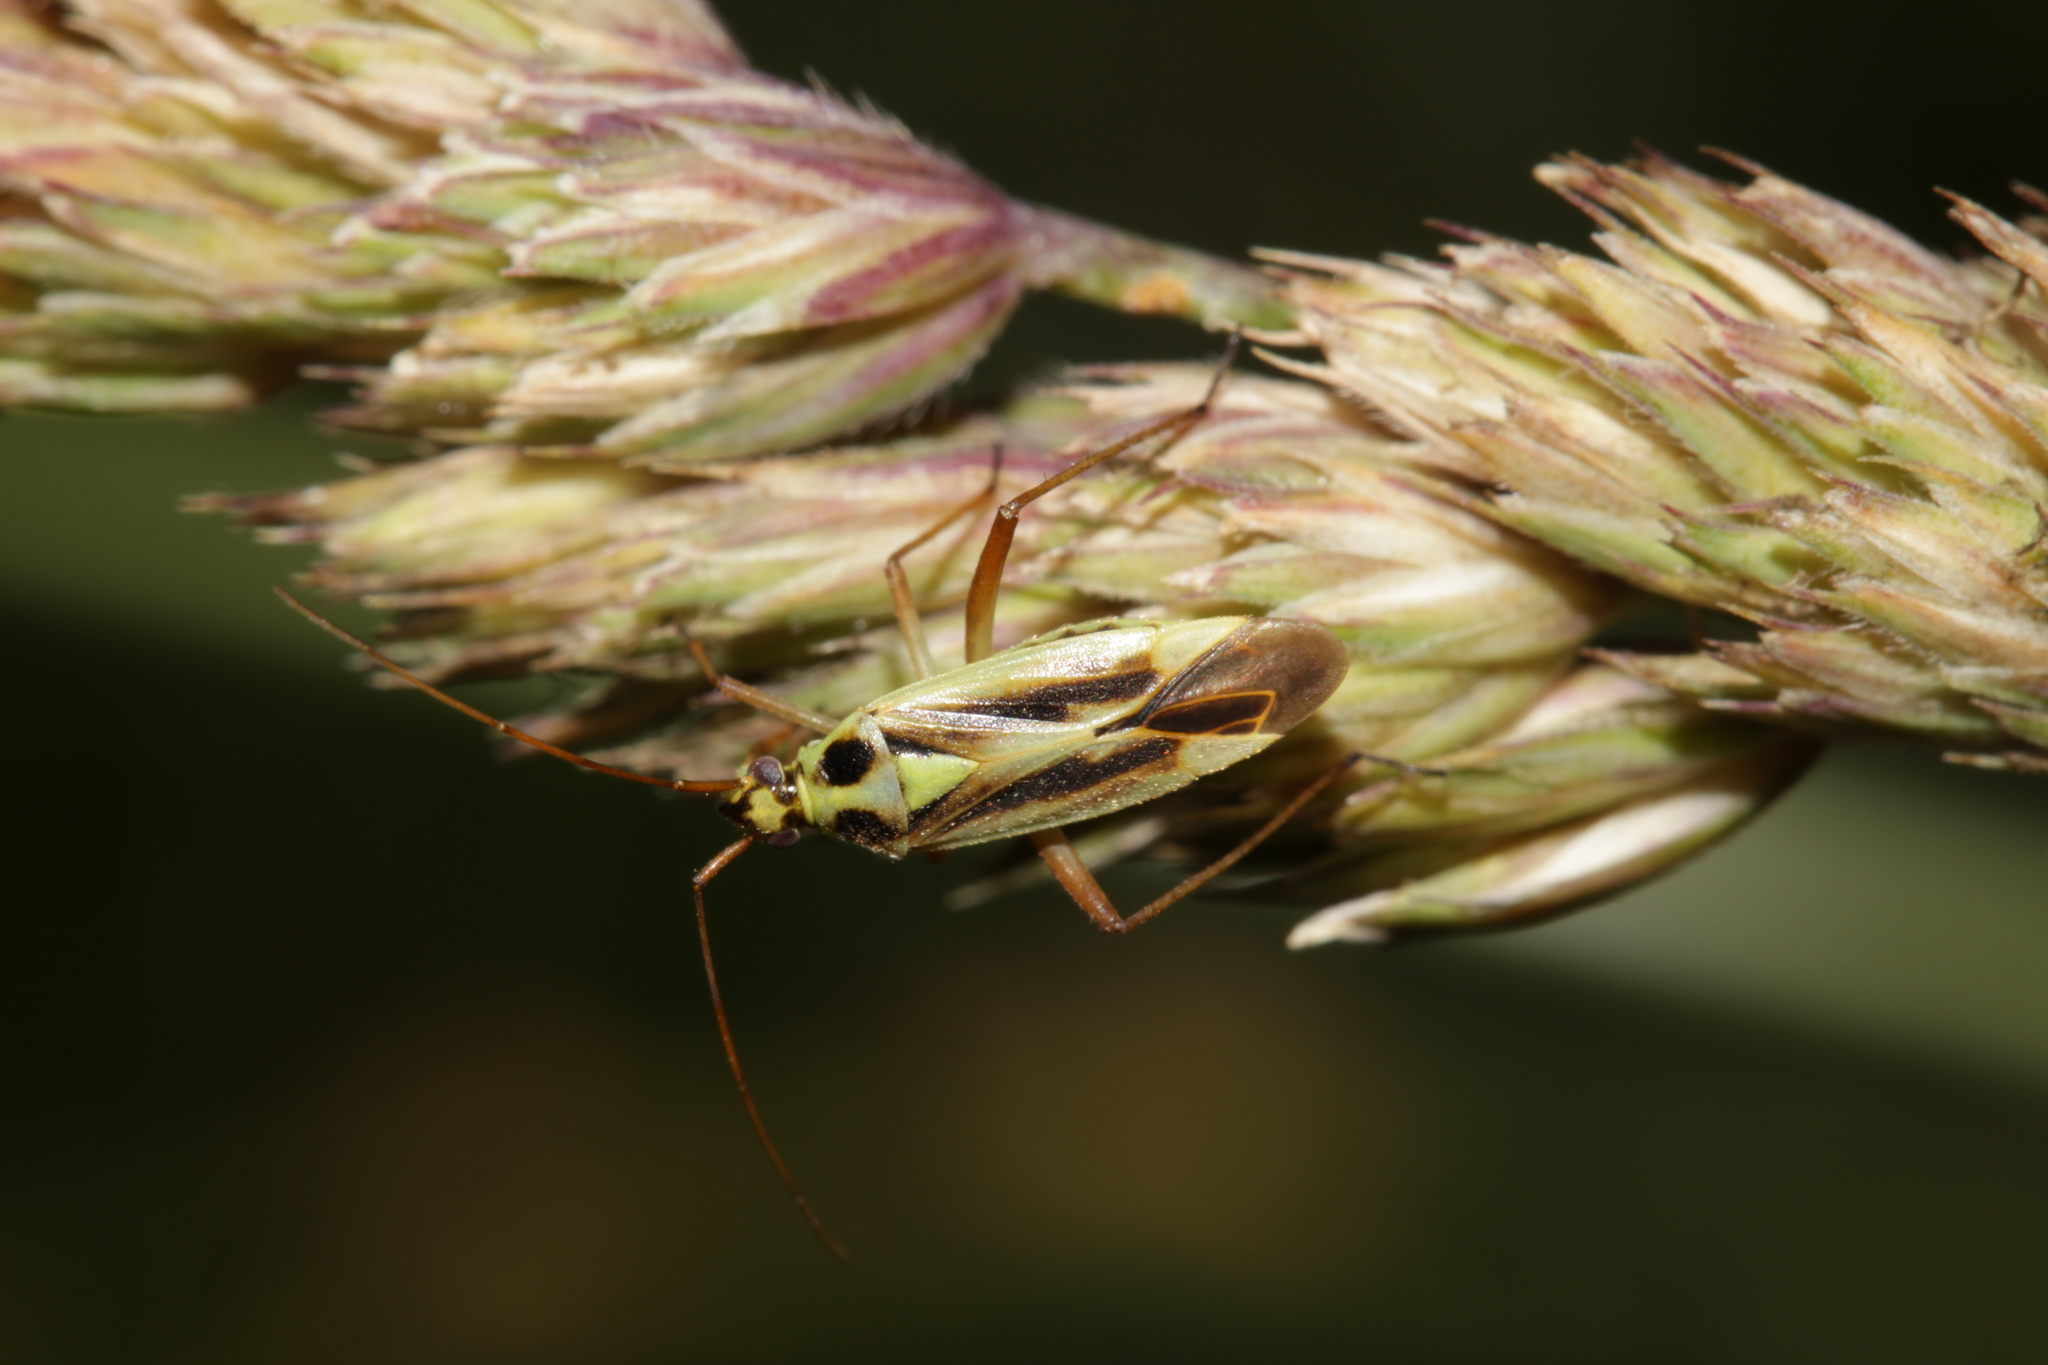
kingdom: Animalia
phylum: Arthropoda
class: Insecta
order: Hemiptera
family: Miridae
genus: Stenotus
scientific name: Stenotus binotatus
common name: Plant bug
